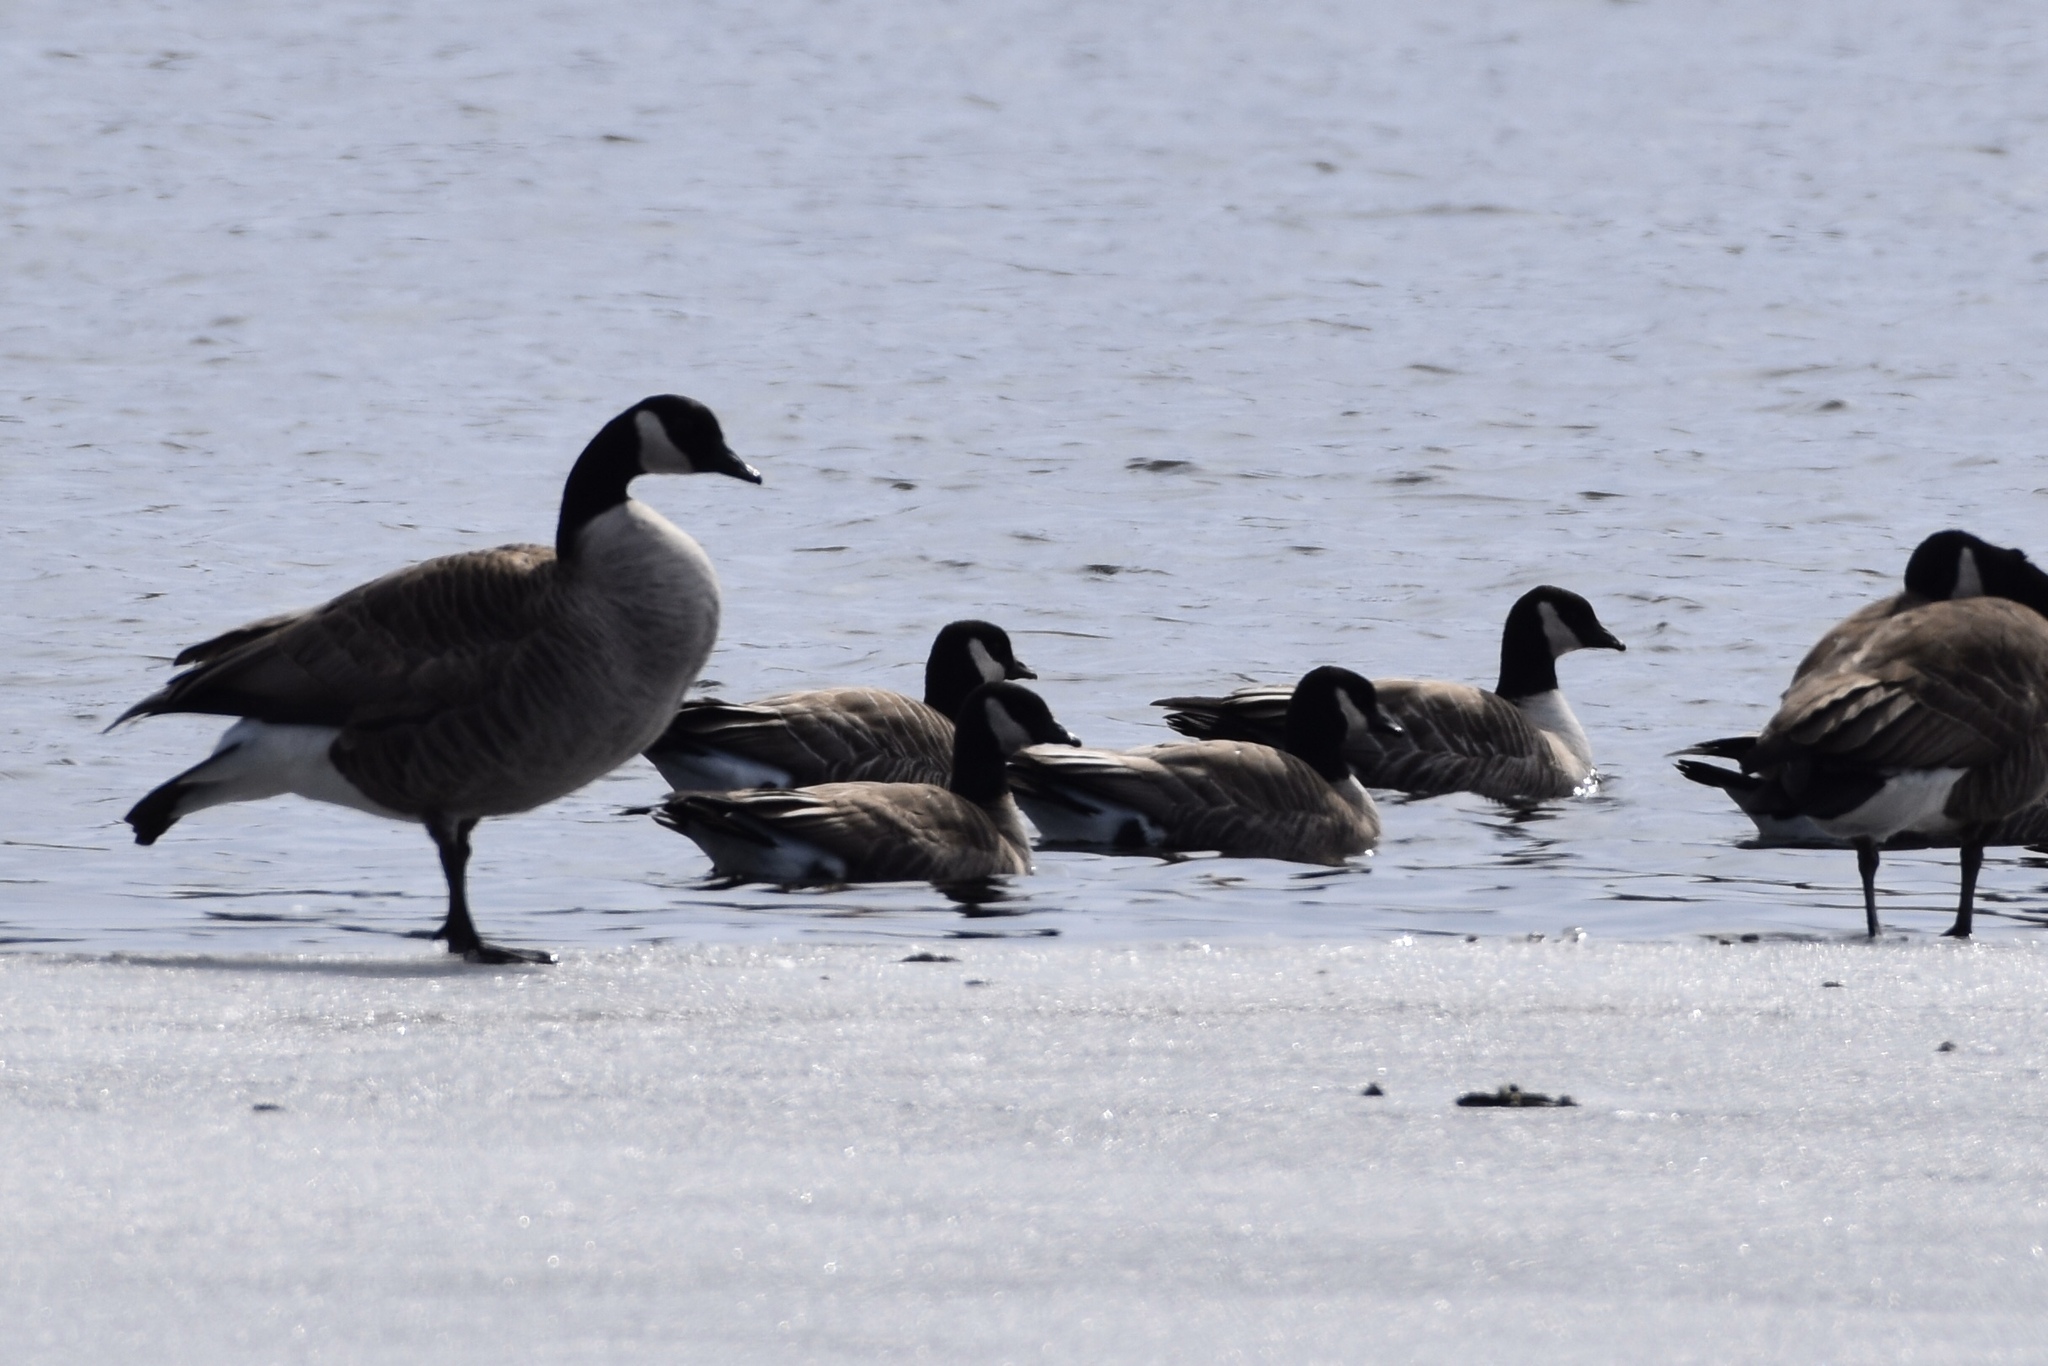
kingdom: Animalia
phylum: Chordata
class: Aves
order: Anseriformes
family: Anatidae
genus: Branta
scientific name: Branta hutchinsii
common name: Cackling goose
